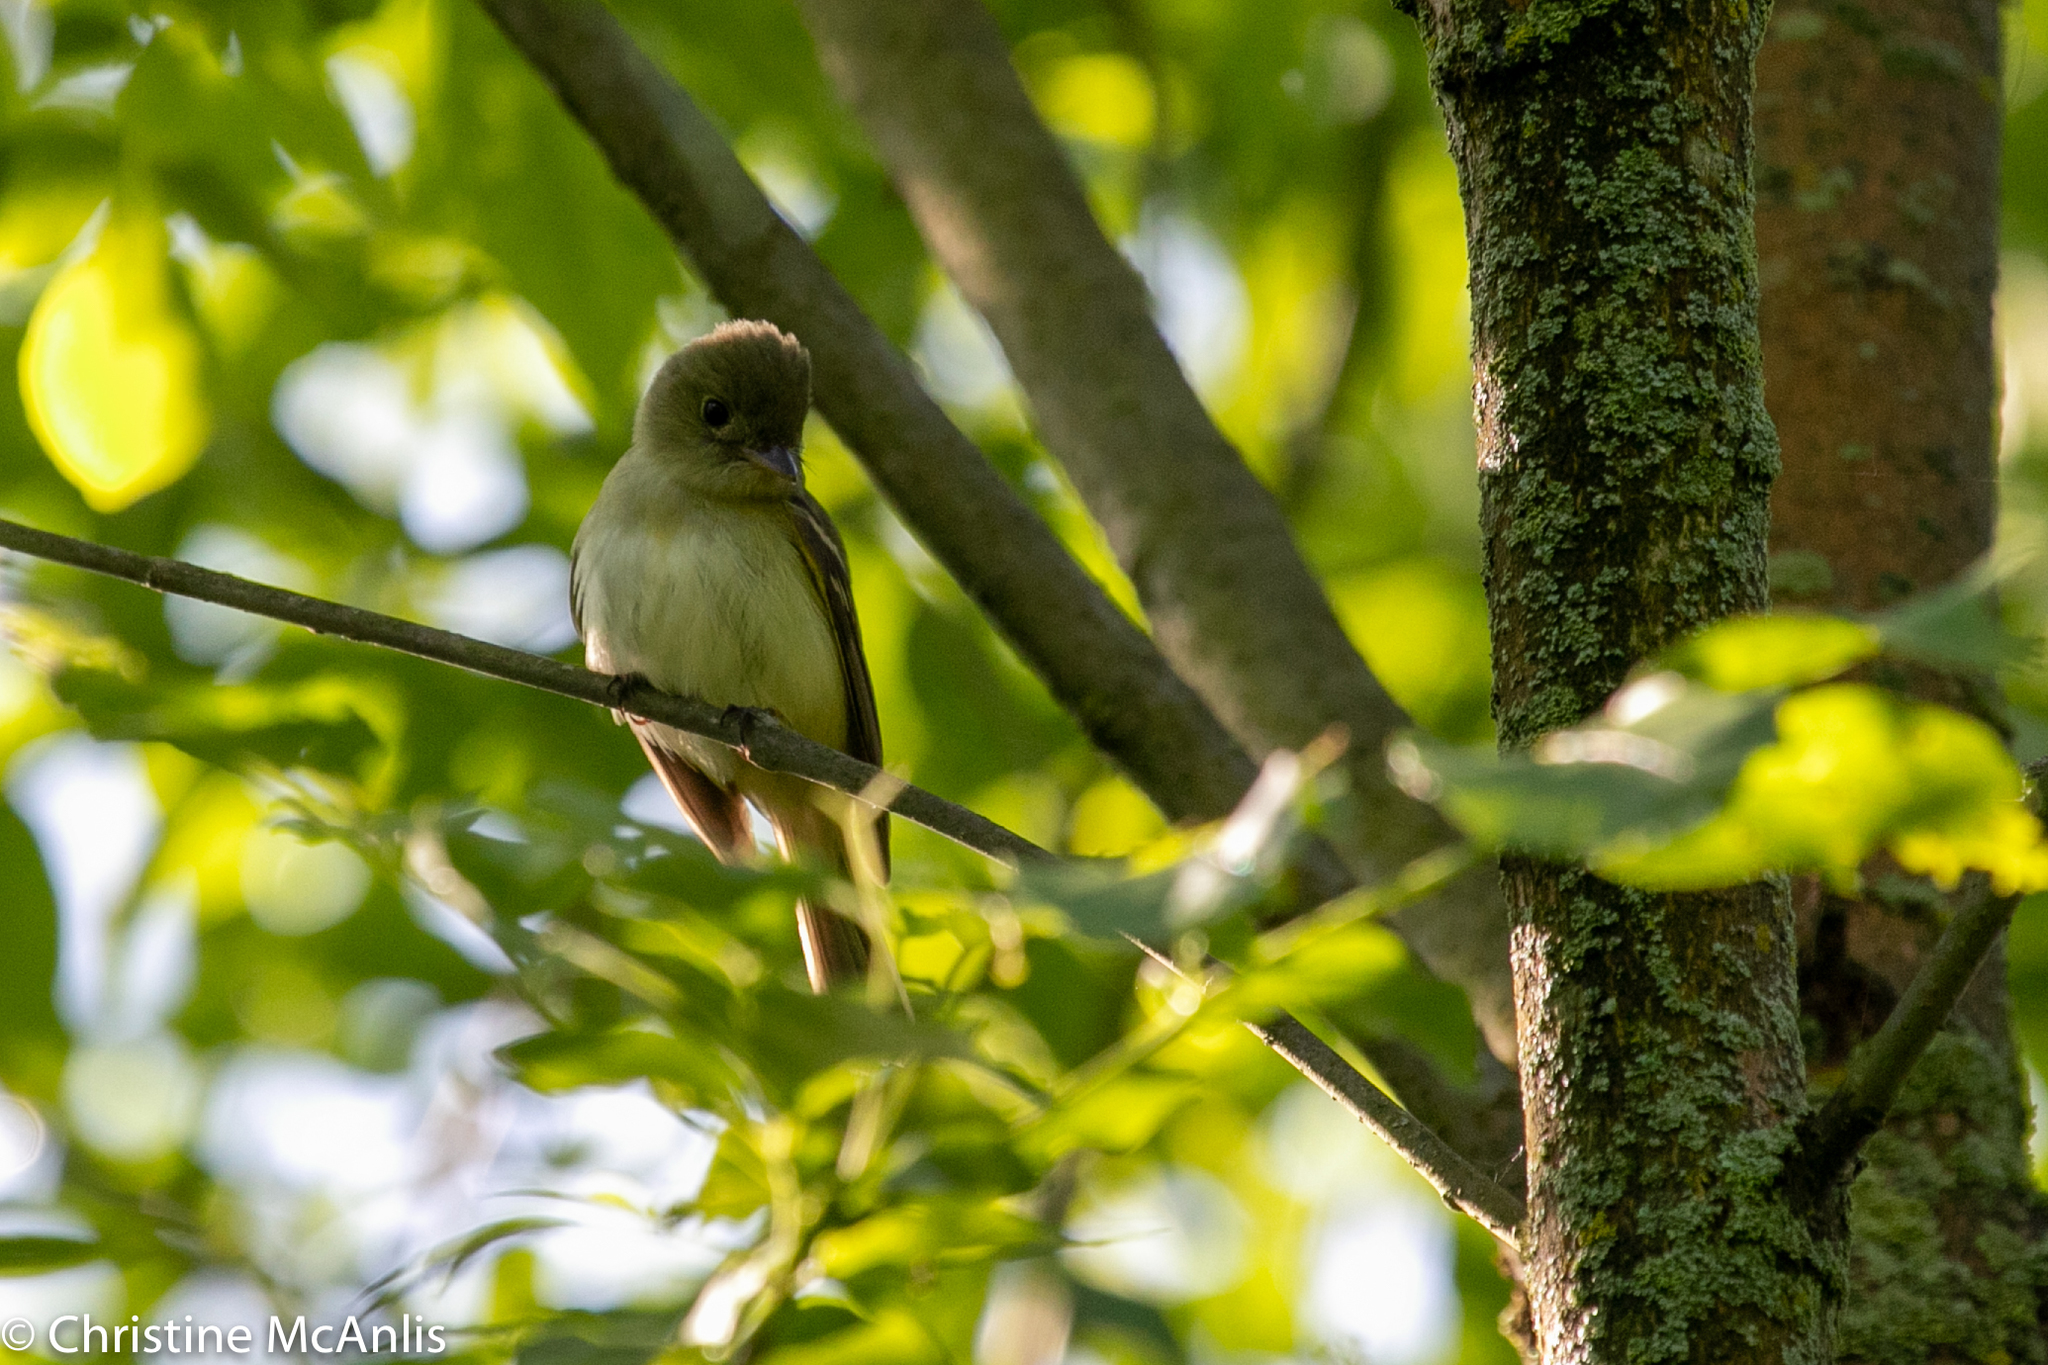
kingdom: Animalia
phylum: Chordata
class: Aves
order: Passeriformes
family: Tyrannidae
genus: Empidonax
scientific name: Empidonax virescens
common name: Acadian flycatcher
